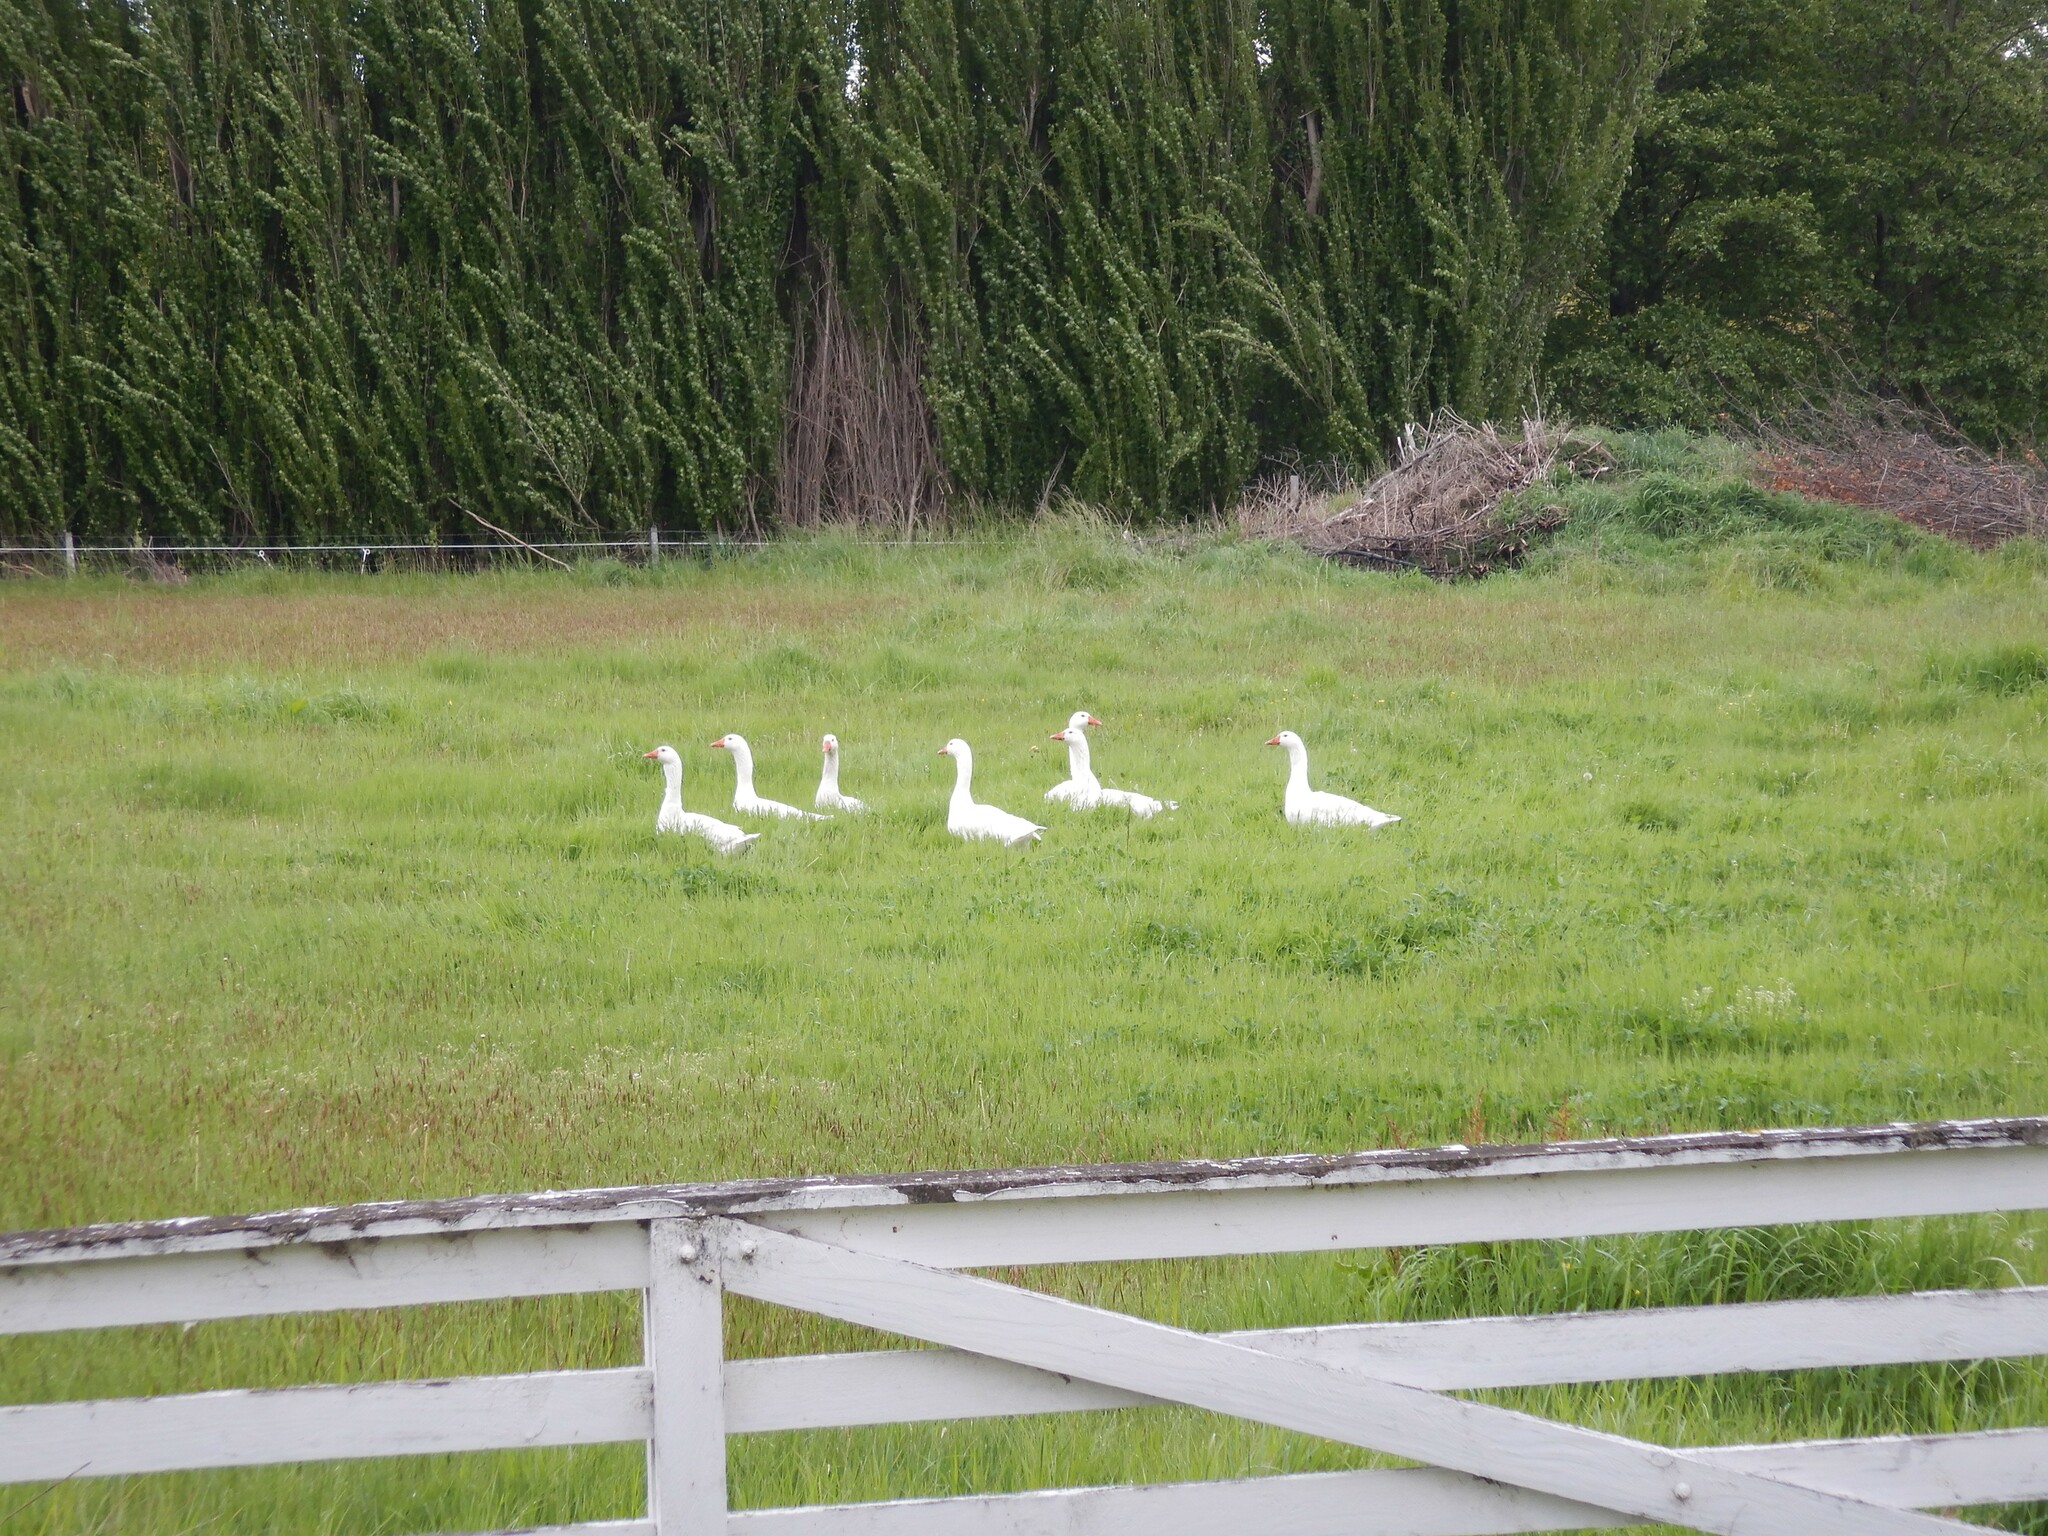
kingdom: Animalia
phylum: Chordata
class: Aves
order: Anseriformes
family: Anatidae
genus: Anser
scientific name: Anser anser
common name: Greylag goose
